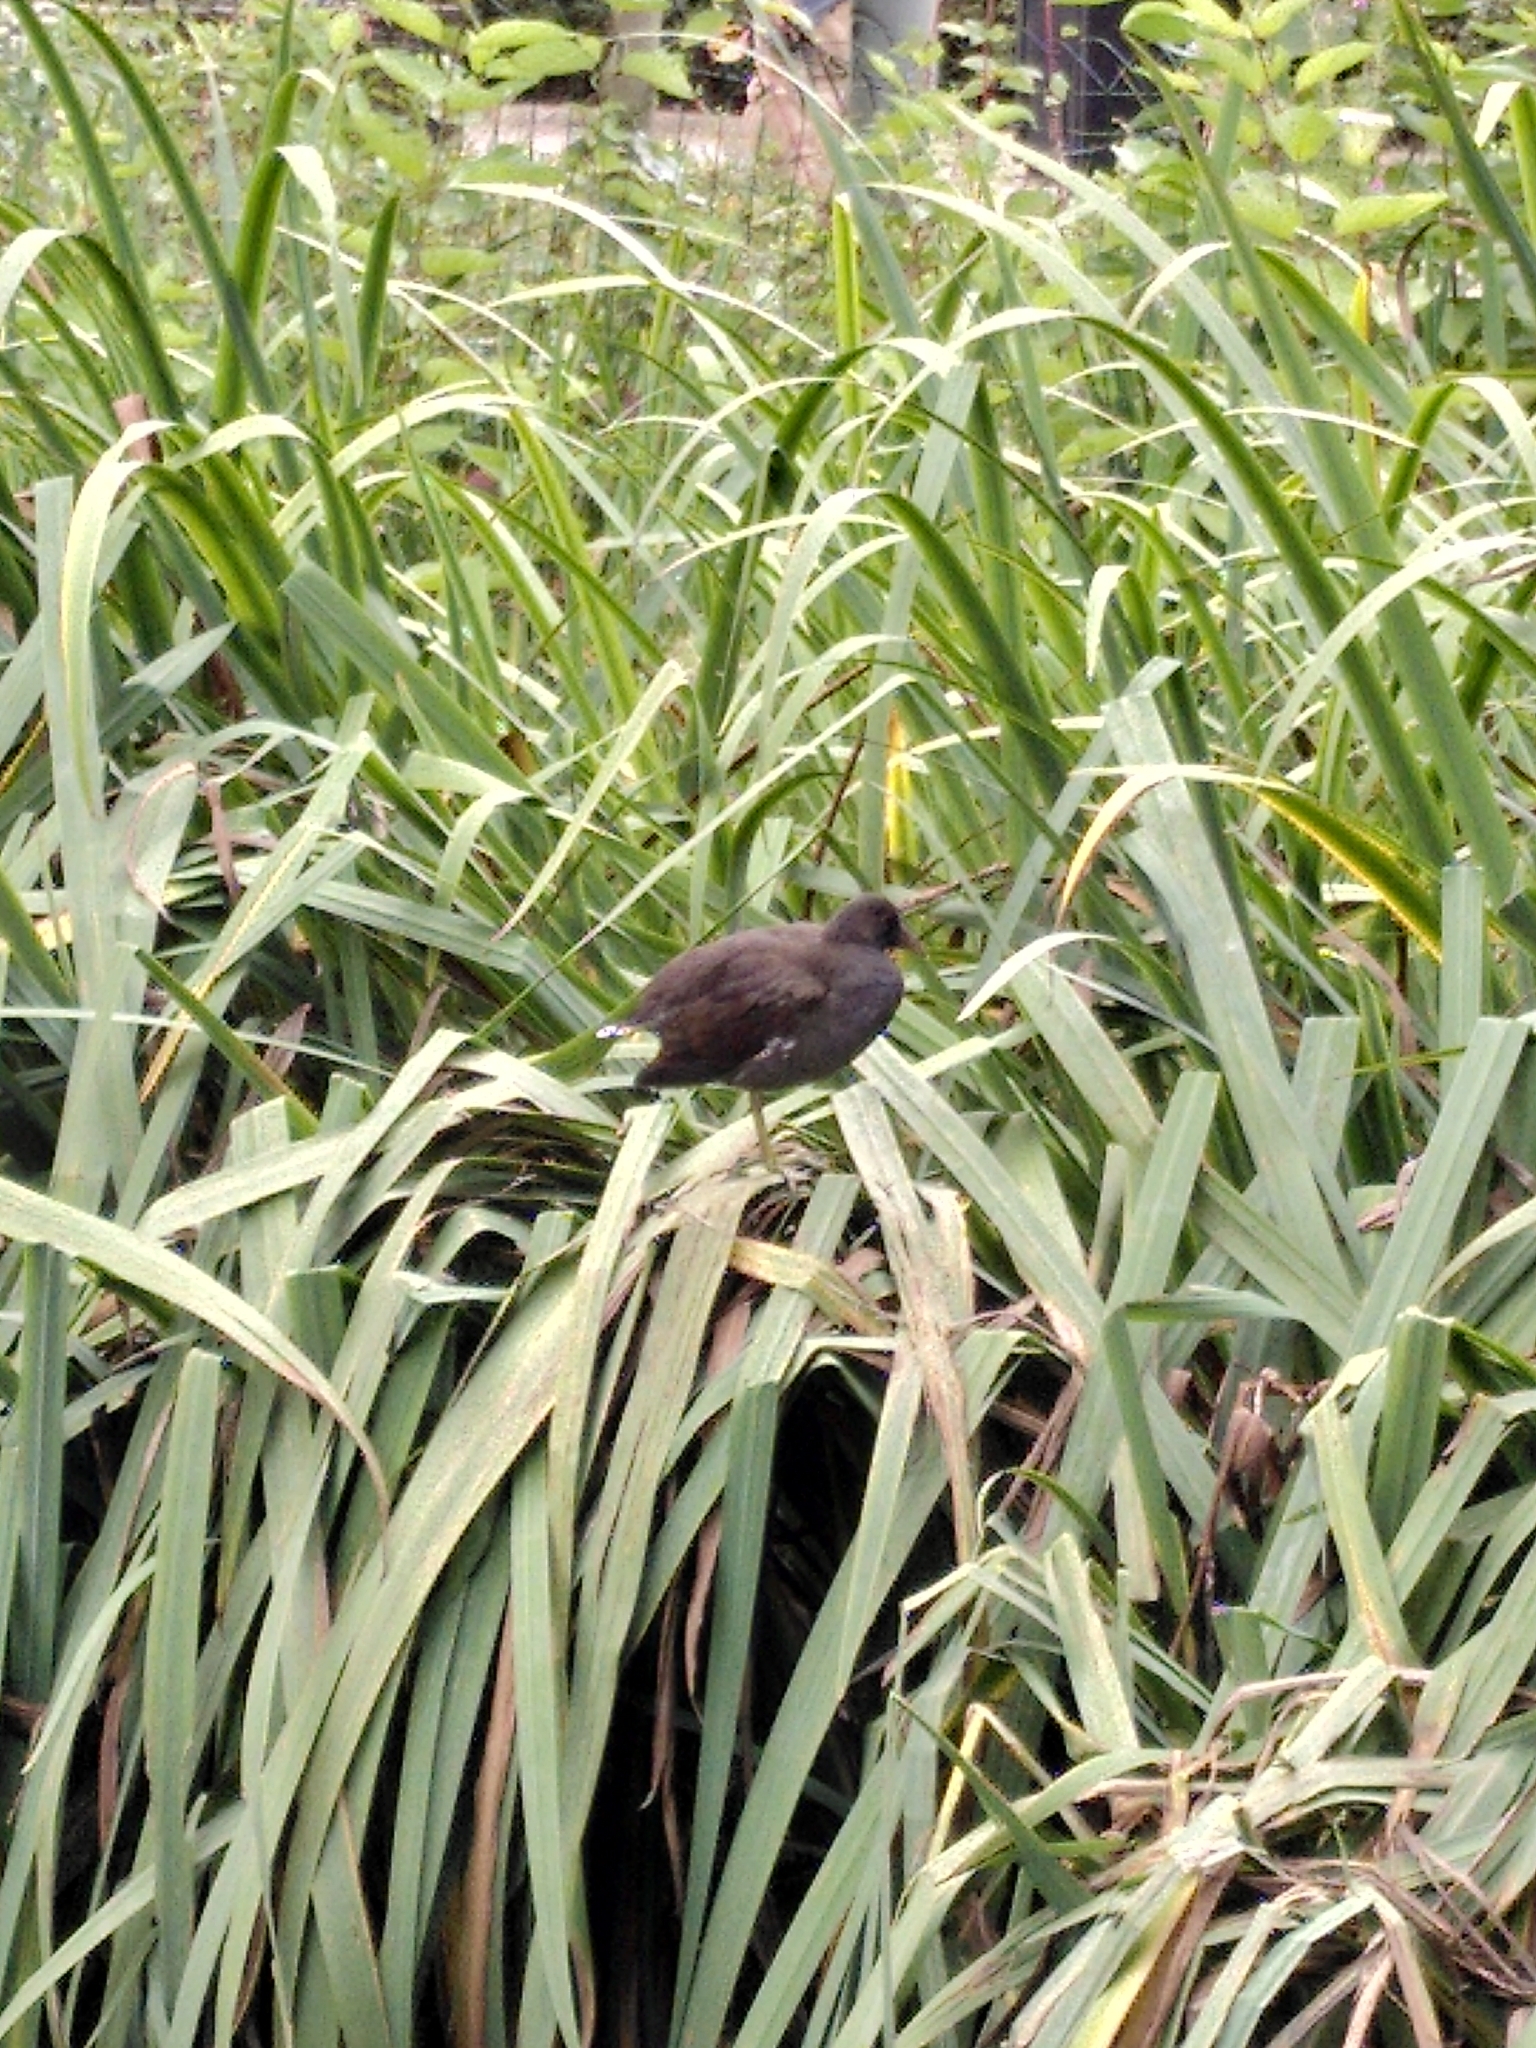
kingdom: Animalia
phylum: Chordata
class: Aves
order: Gruiformes
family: Rallidae
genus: Gallinula
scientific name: Gallinula chloropus
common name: Common moorhen
